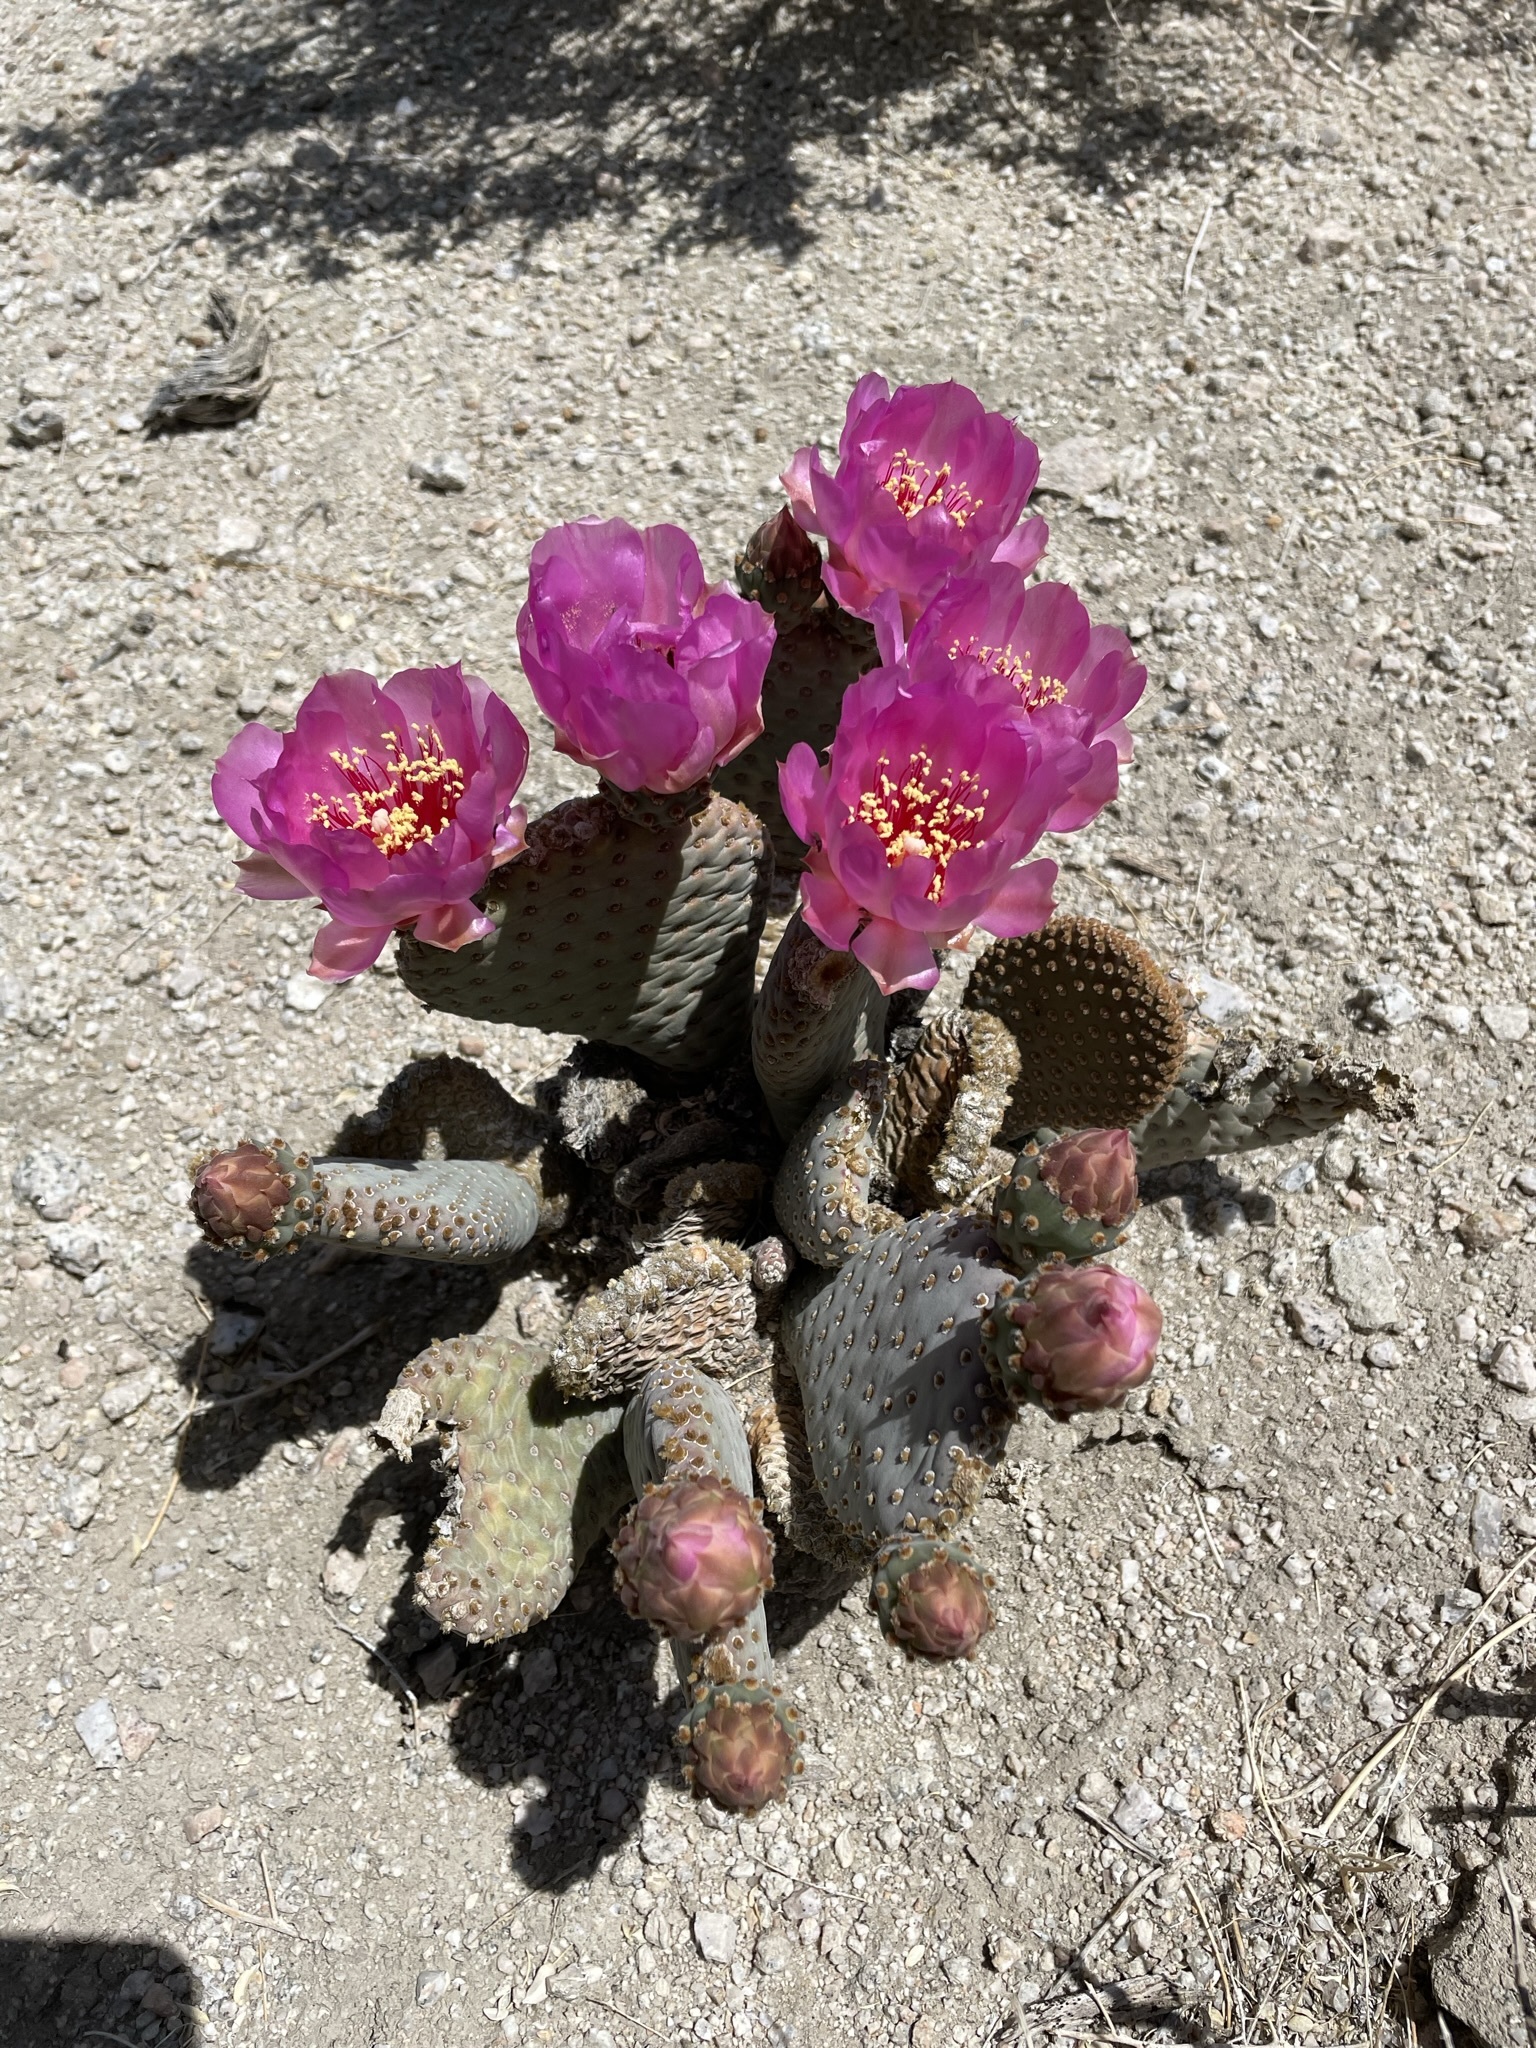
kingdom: Plantae
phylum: Tracheophyta
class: Magnoliopsida
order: Caryophyllales
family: Cactaceae
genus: Opuntia
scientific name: Opuntia basilaris
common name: Beavertail prickly-pear
